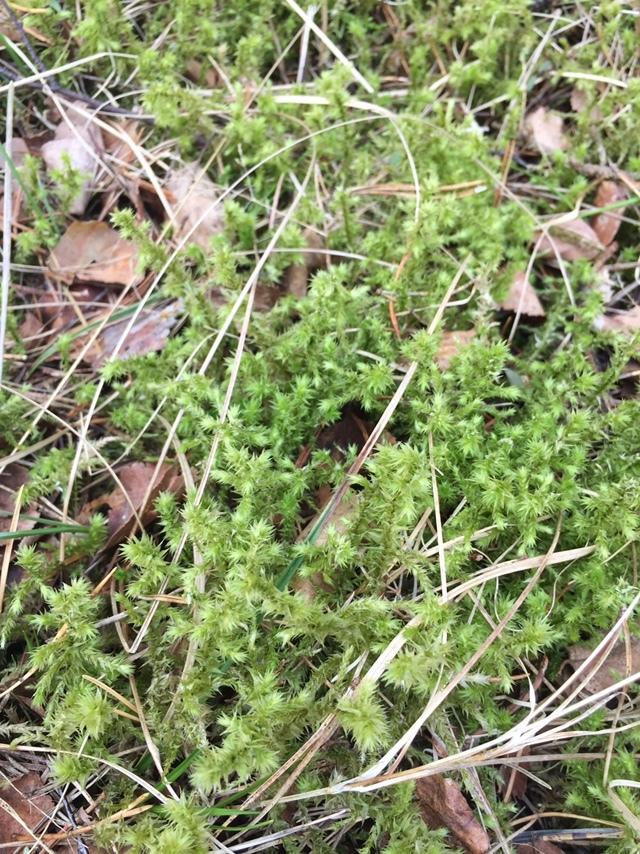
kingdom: Plantae
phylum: Bryophyta
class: Bryopsida
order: Hypnales
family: Hylocomiaceae
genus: Hylocomiadelphus
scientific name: Hylocomiadelphus triquetrus
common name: Rough goose neck moss
